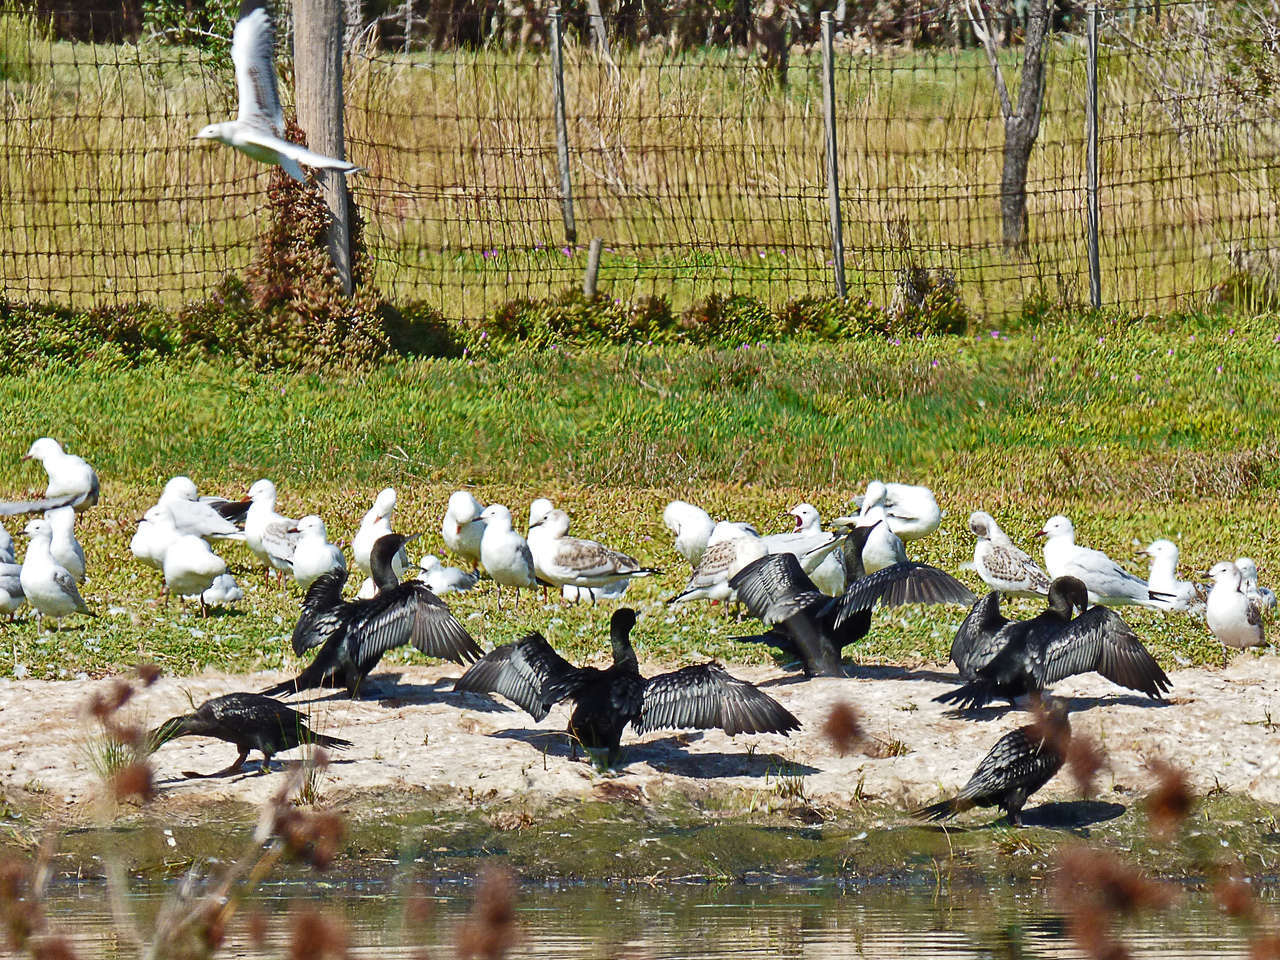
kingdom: Animalia
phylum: Chordata
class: Aves
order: Suliformes
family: Phalacrocoracidae
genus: Phalacrocorax
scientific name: Phalacrocorax sulcirostris
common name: Little black cormorant
